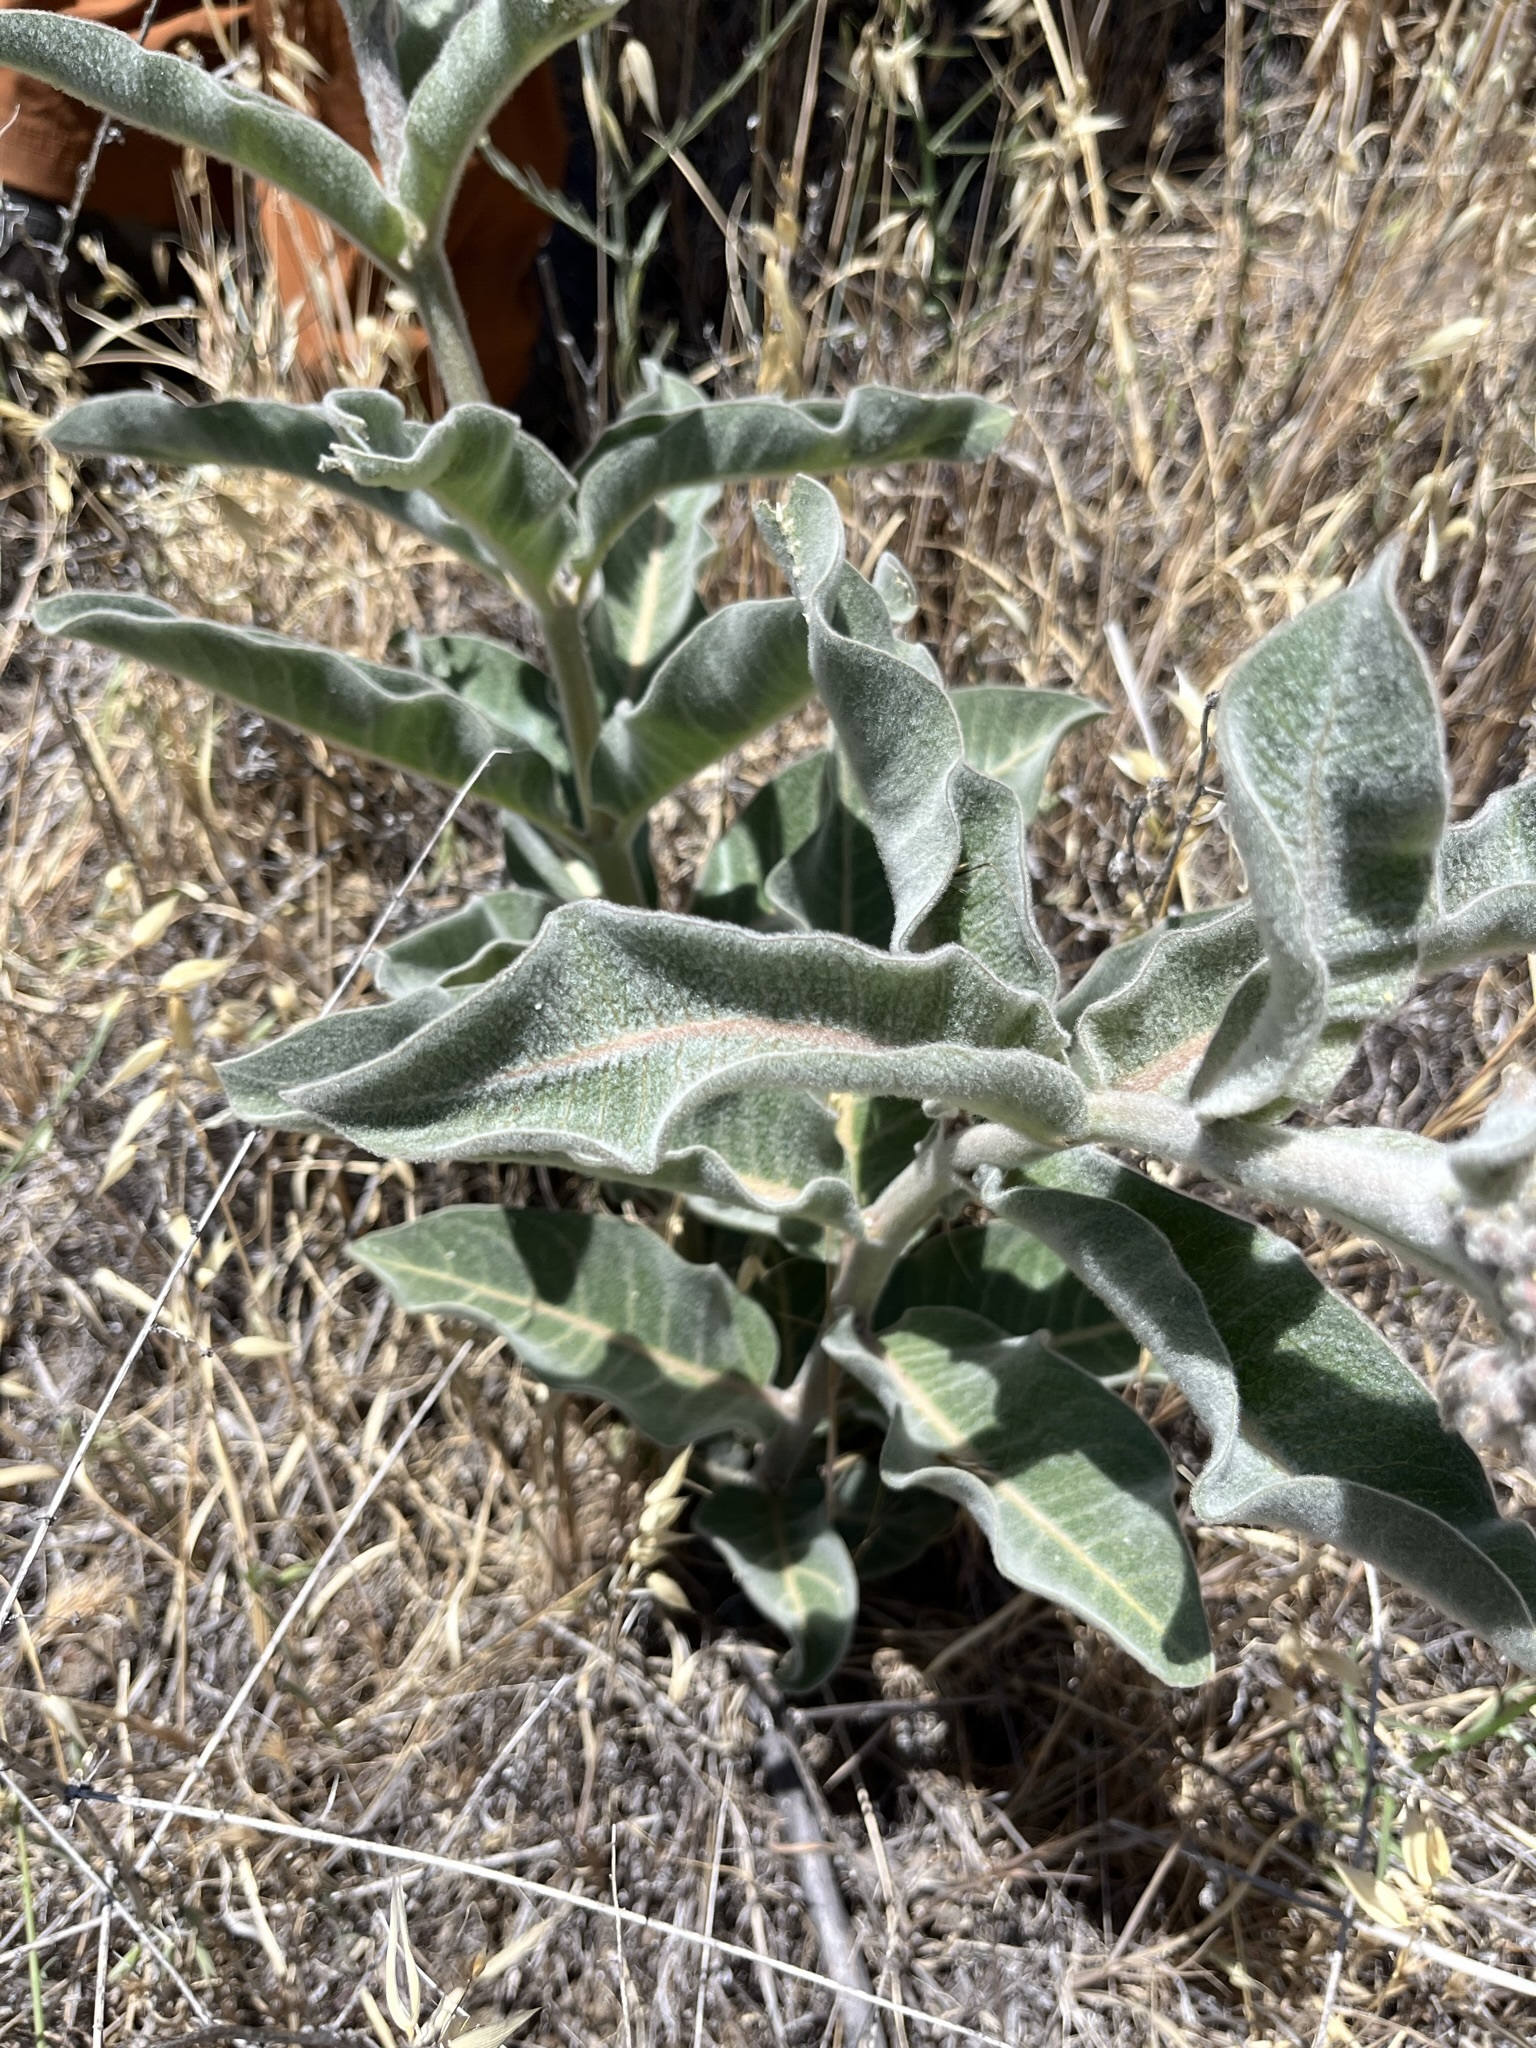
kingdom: Plantae
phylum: Tracheophyta
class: Magnoliopsida
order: Gentianales
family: Apocynaceae
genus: Asclepias
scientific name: Asclepias eriocarpa
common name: Indian milkweed
